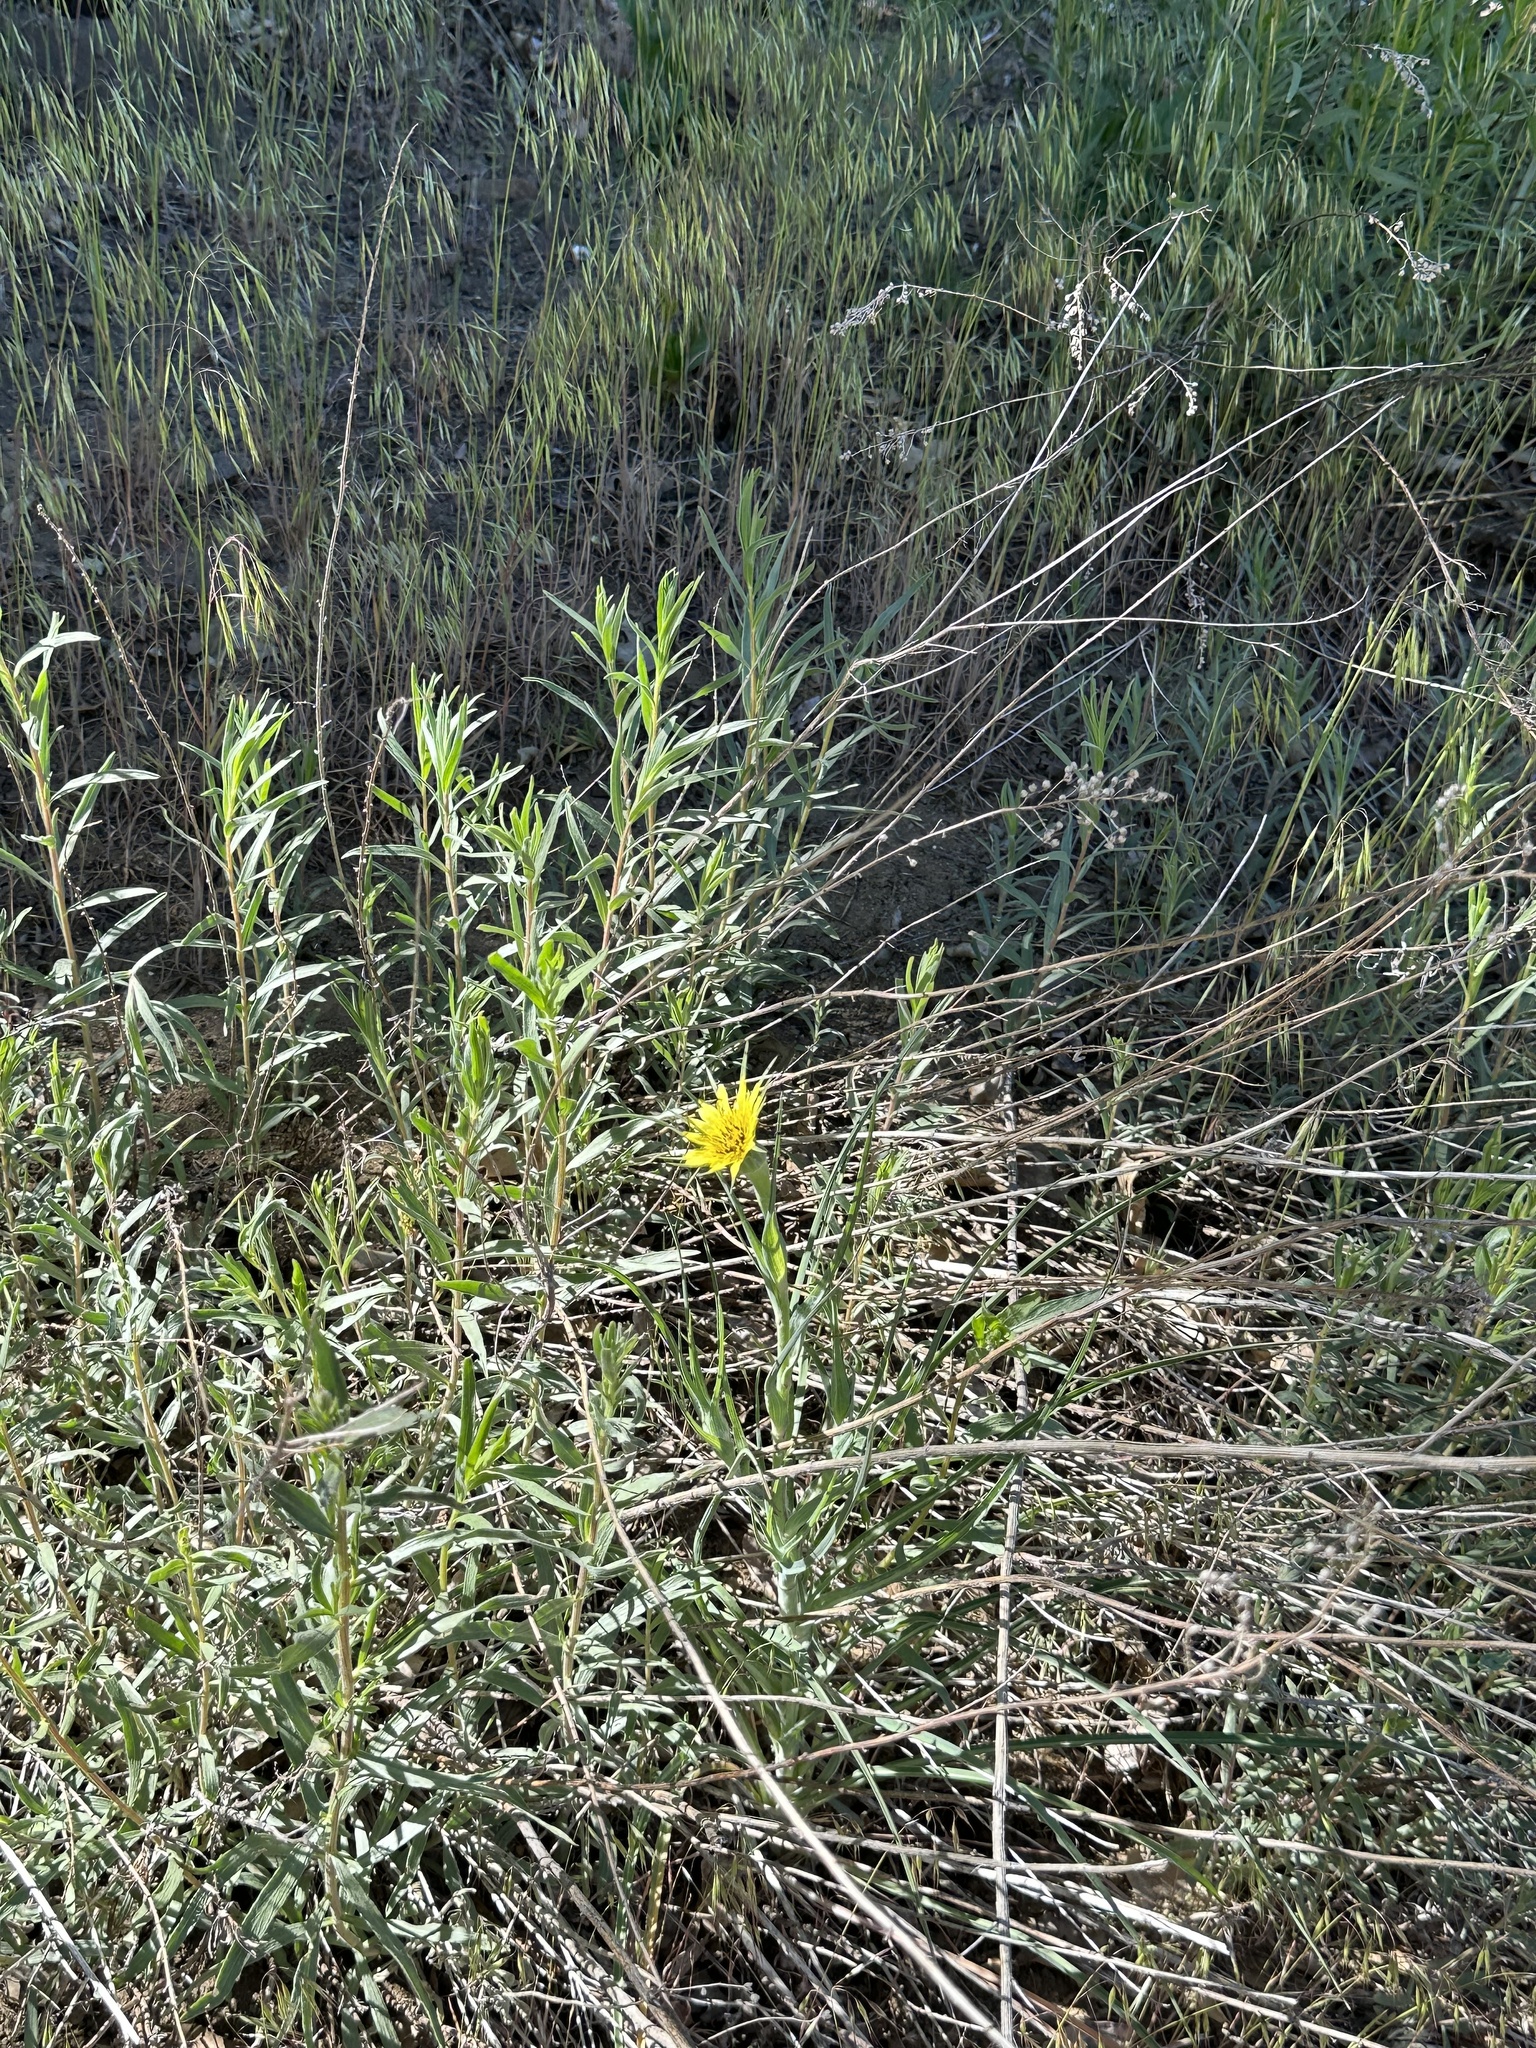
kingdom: Plantae
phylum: Tracheophyta
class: Magnoliopsida
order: Asterales
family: Asteraceae
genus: Tragopogon
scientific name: Tragopogon dubius
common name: Yellow salsify
